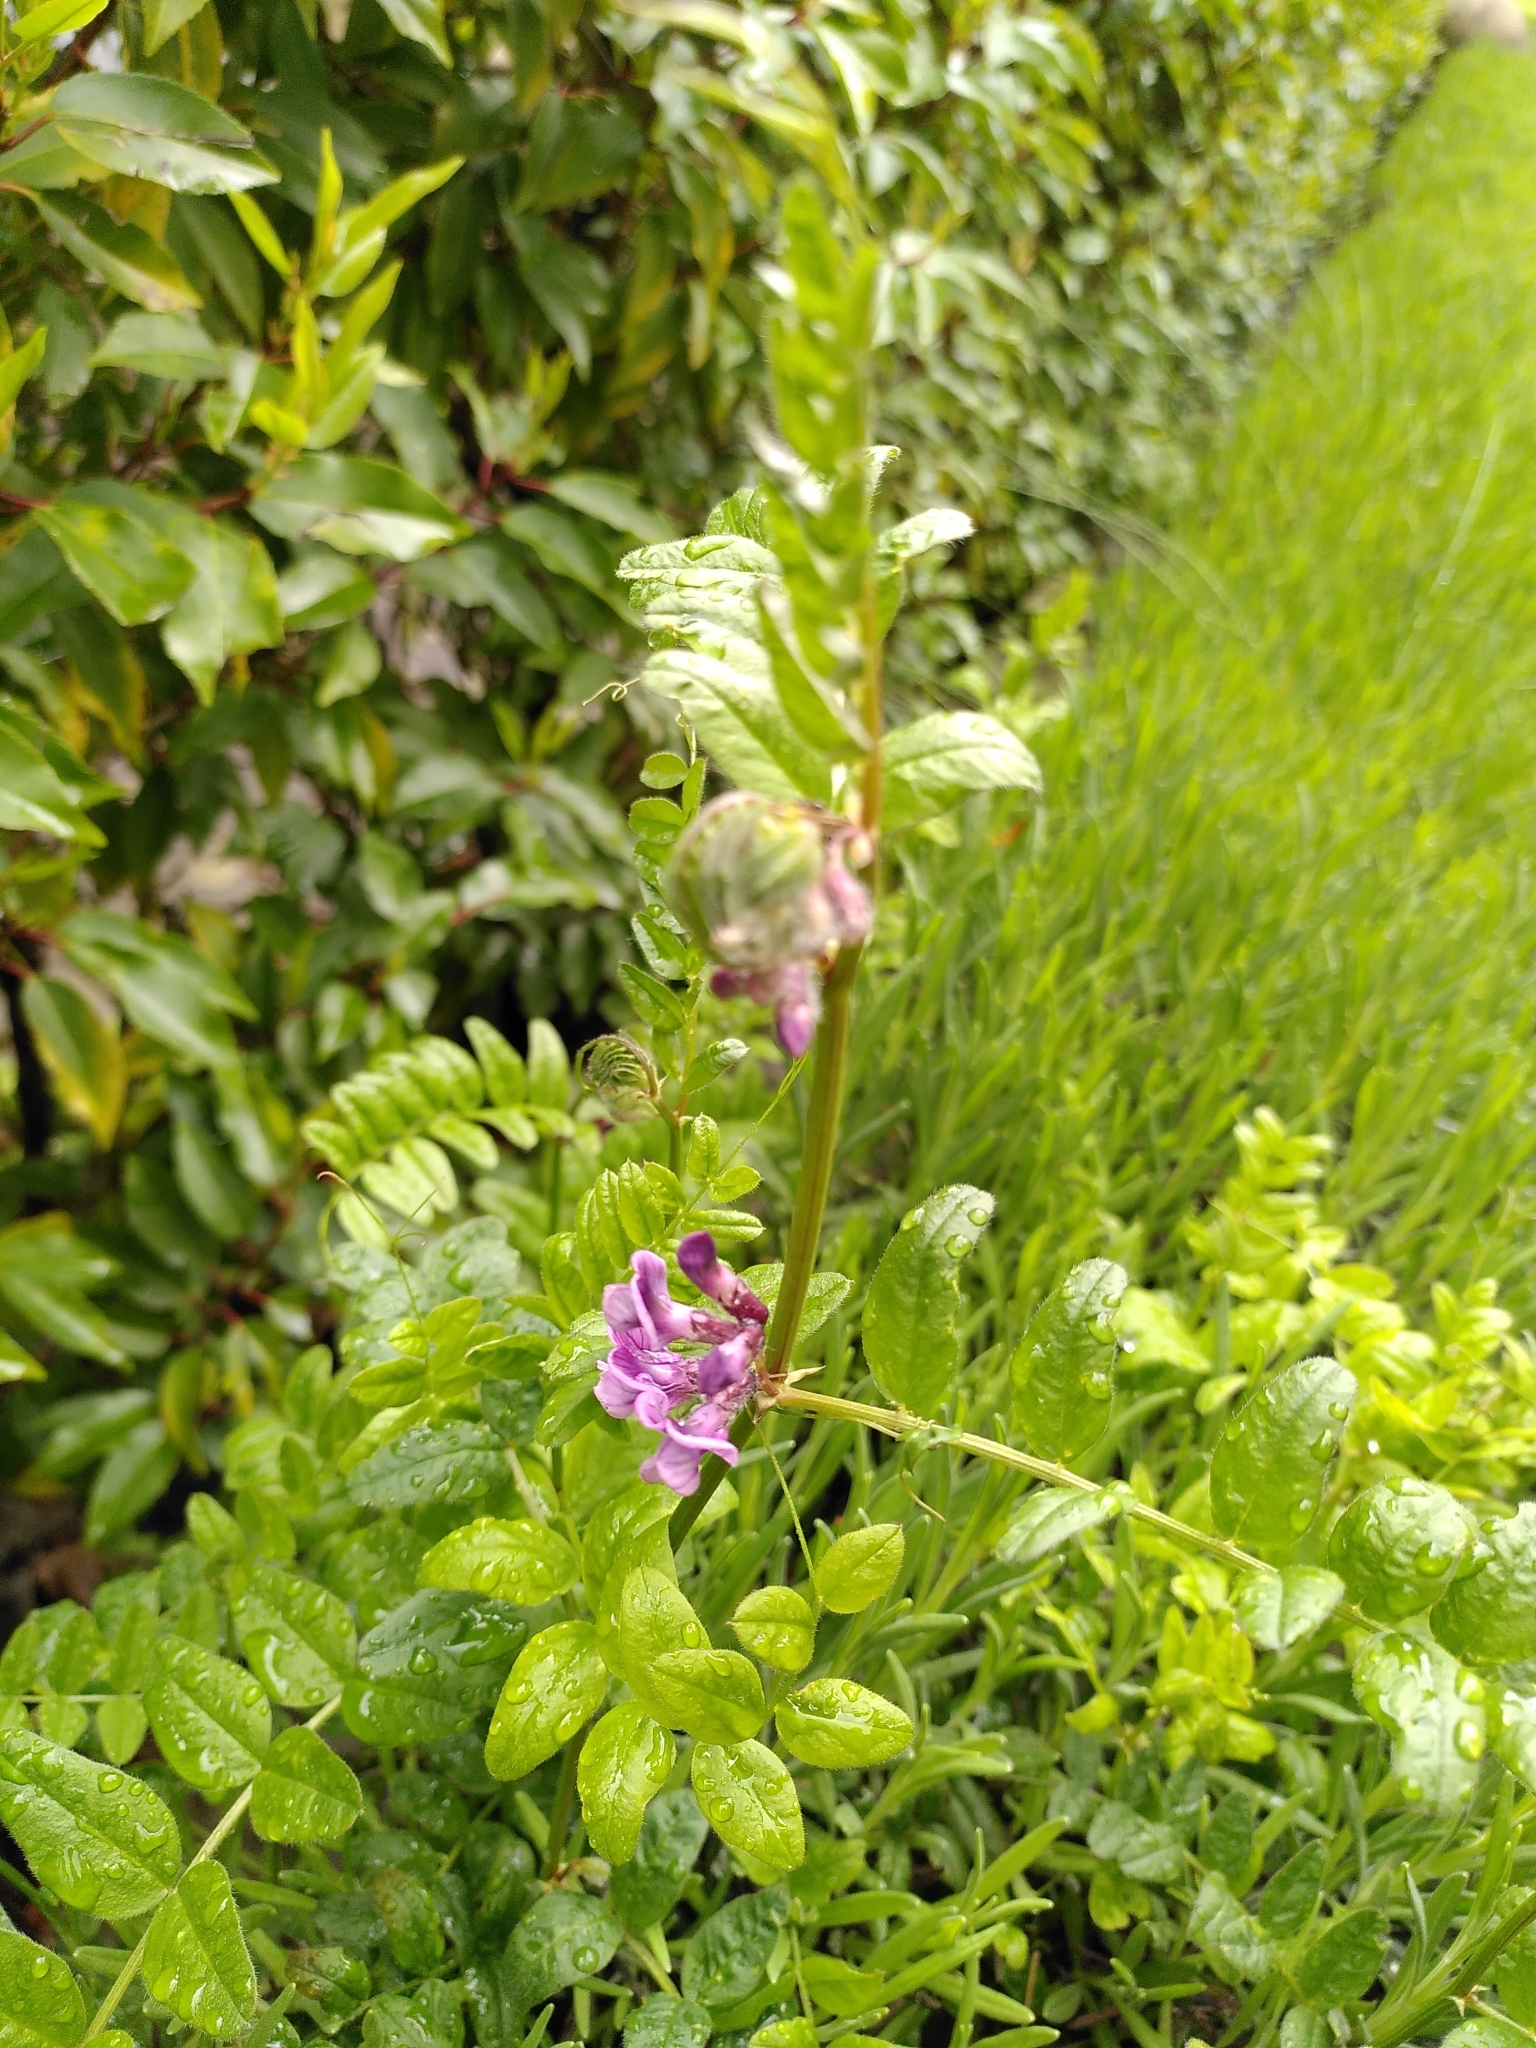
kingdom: Plantae
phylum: Tracheophyta
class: Magnoliopsida
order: Fabales
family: Fabaceae
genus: Vicia
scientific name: Vicia sepium
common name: Bush vetch
